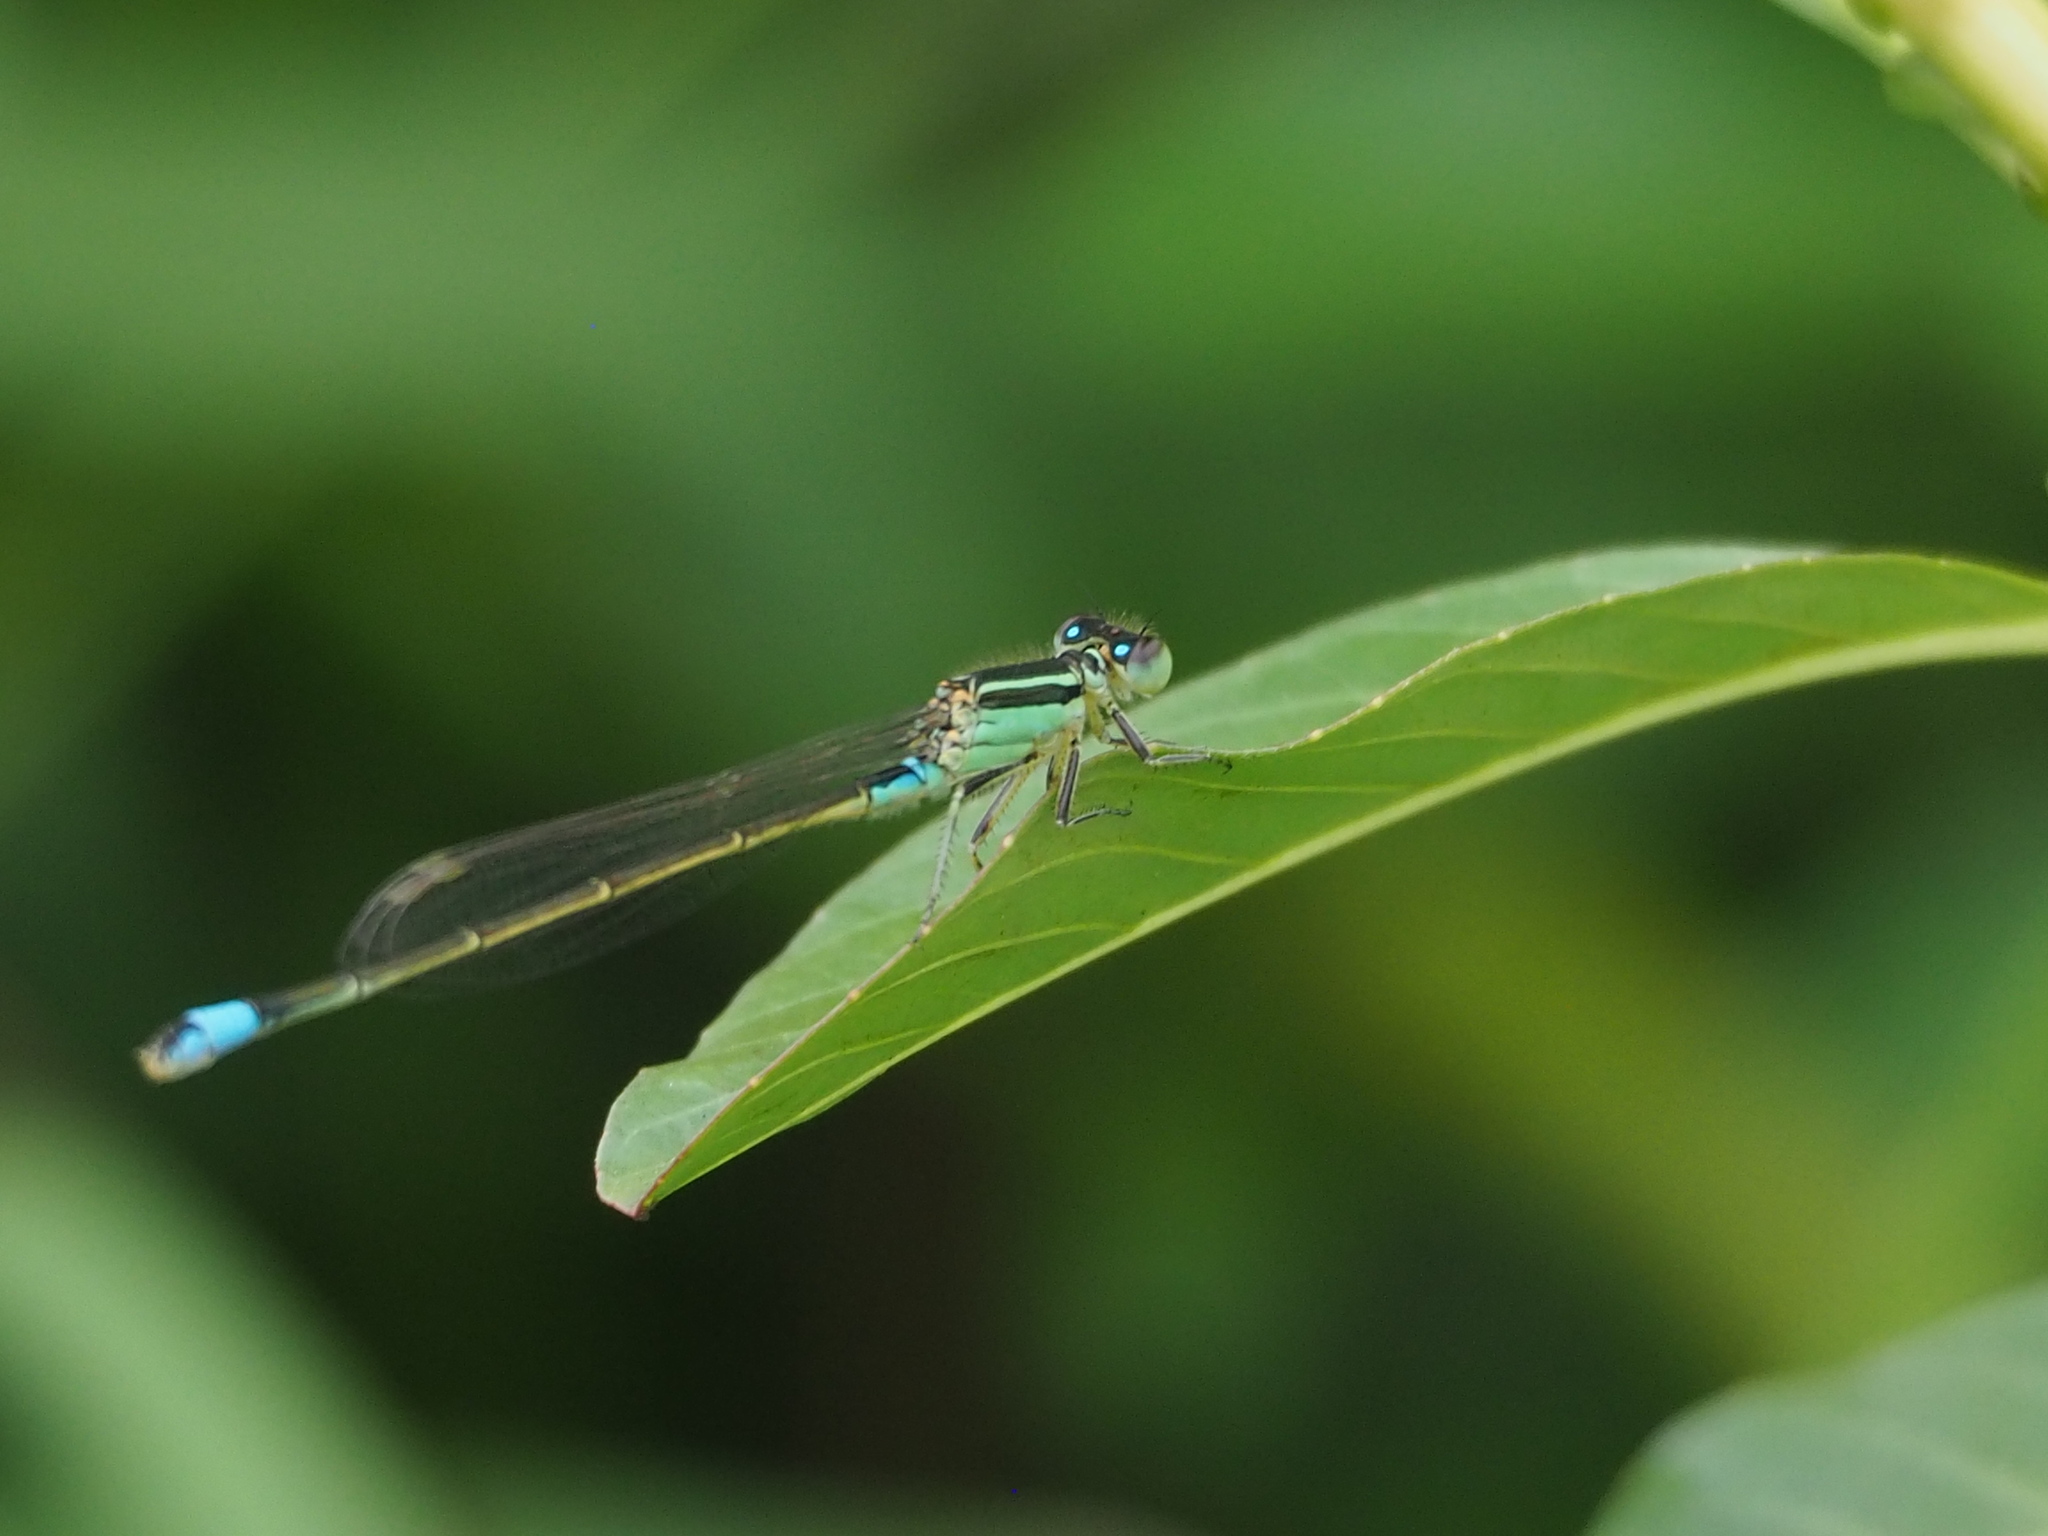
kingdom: Animalia
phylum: Arthropoda
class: Insecta
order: Odonata
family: Coenagrionidae
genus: Ischnura
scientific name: Ischnura senegalensis
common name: Tropical bluetail
